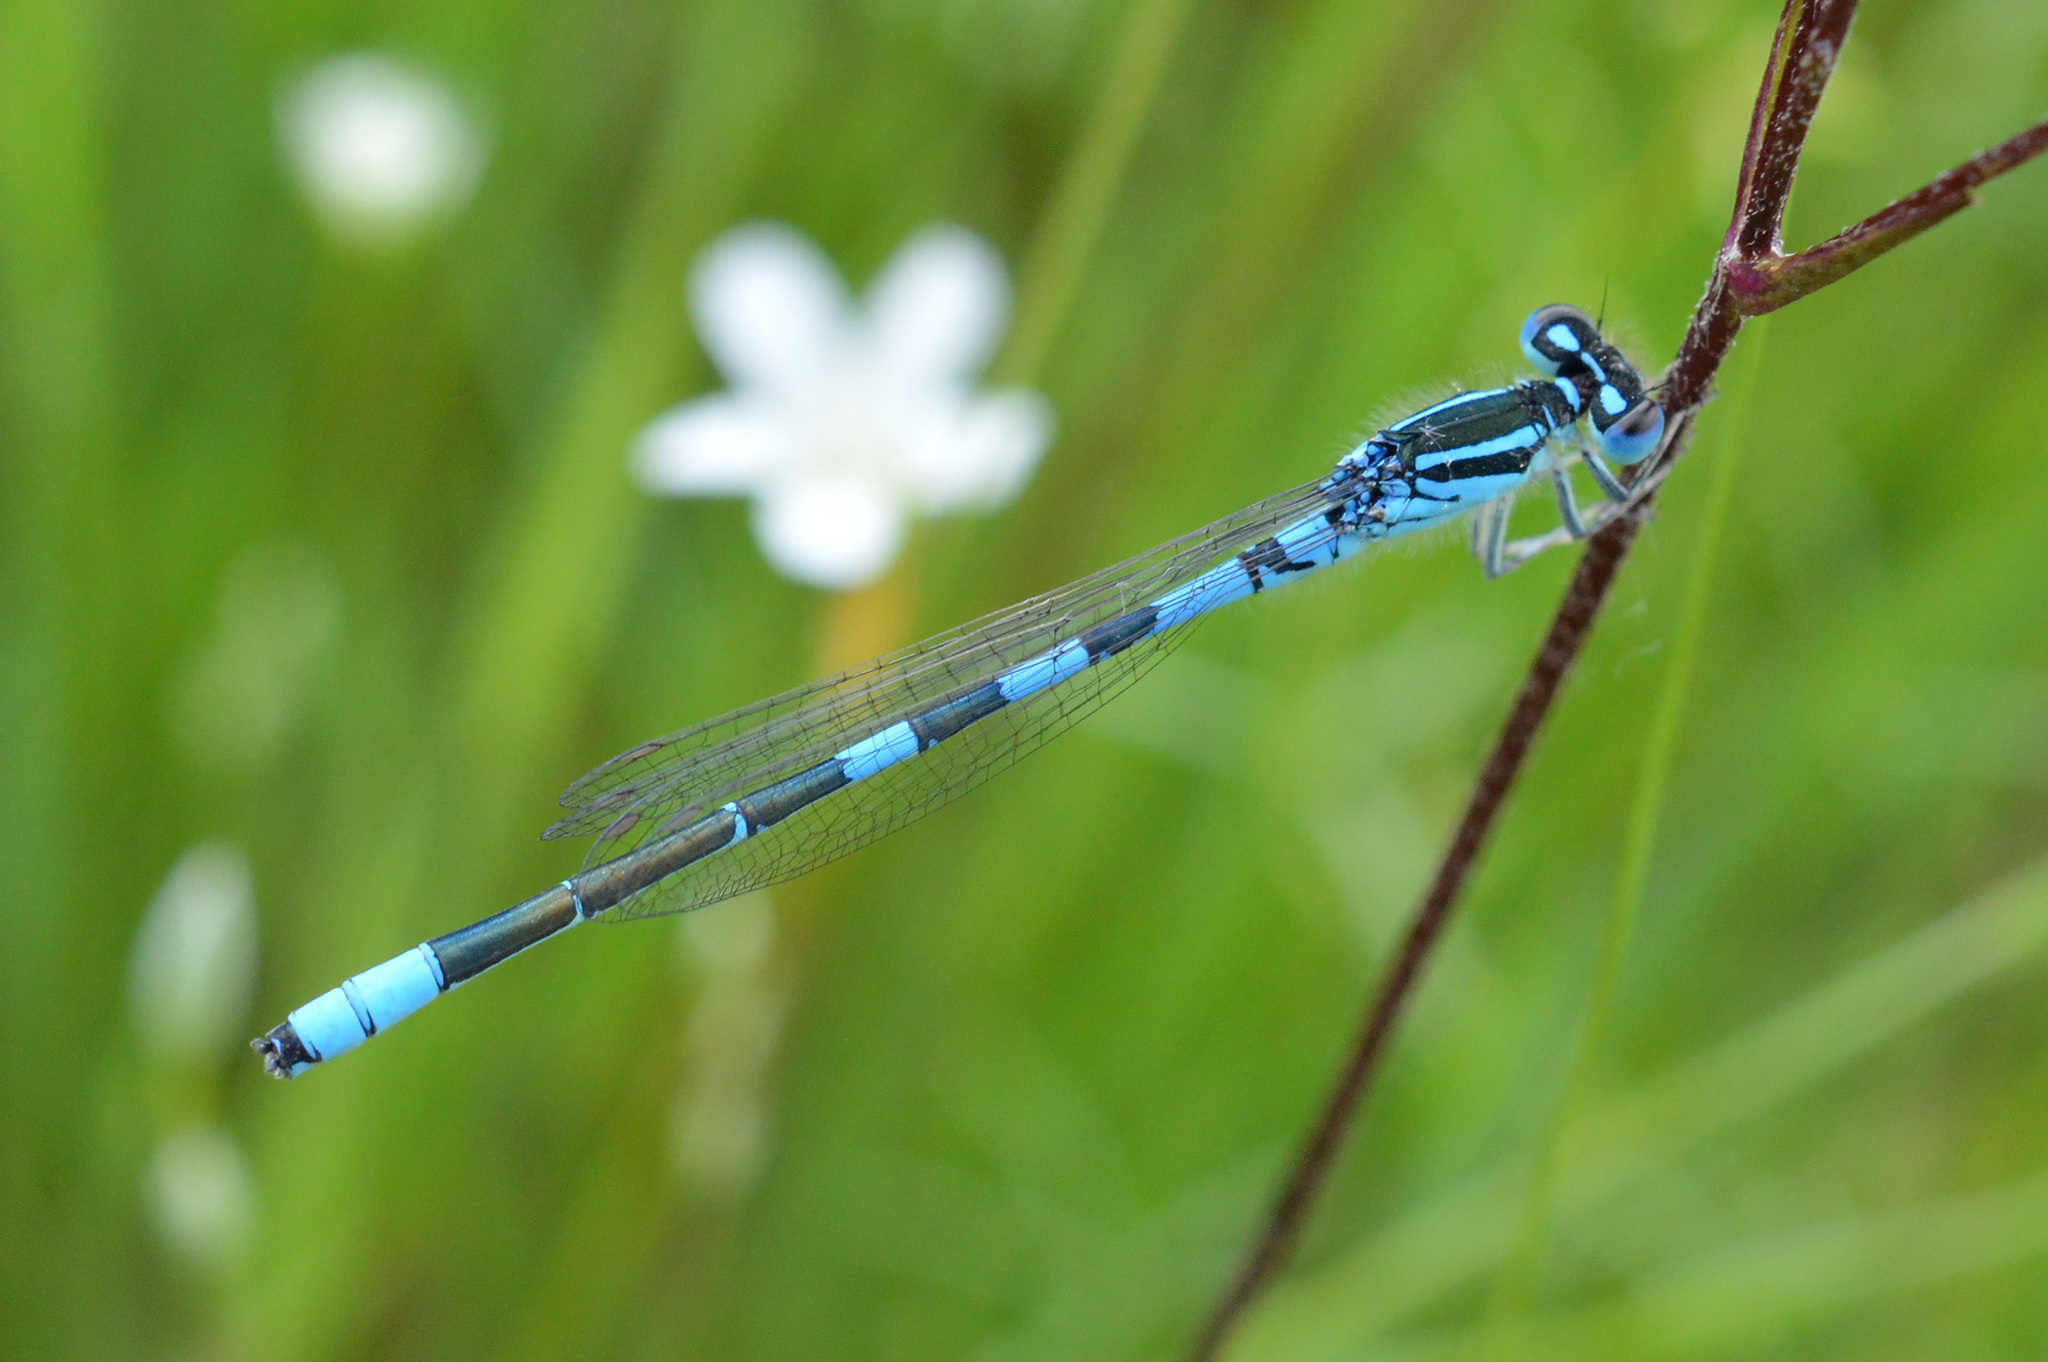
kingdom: Animalia
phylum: Arthropoda
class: Insecta
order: Odonata
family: Coenagrionidae
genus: Coenagrion
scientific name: Coenagrion scitulum
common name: Dainty bluet
